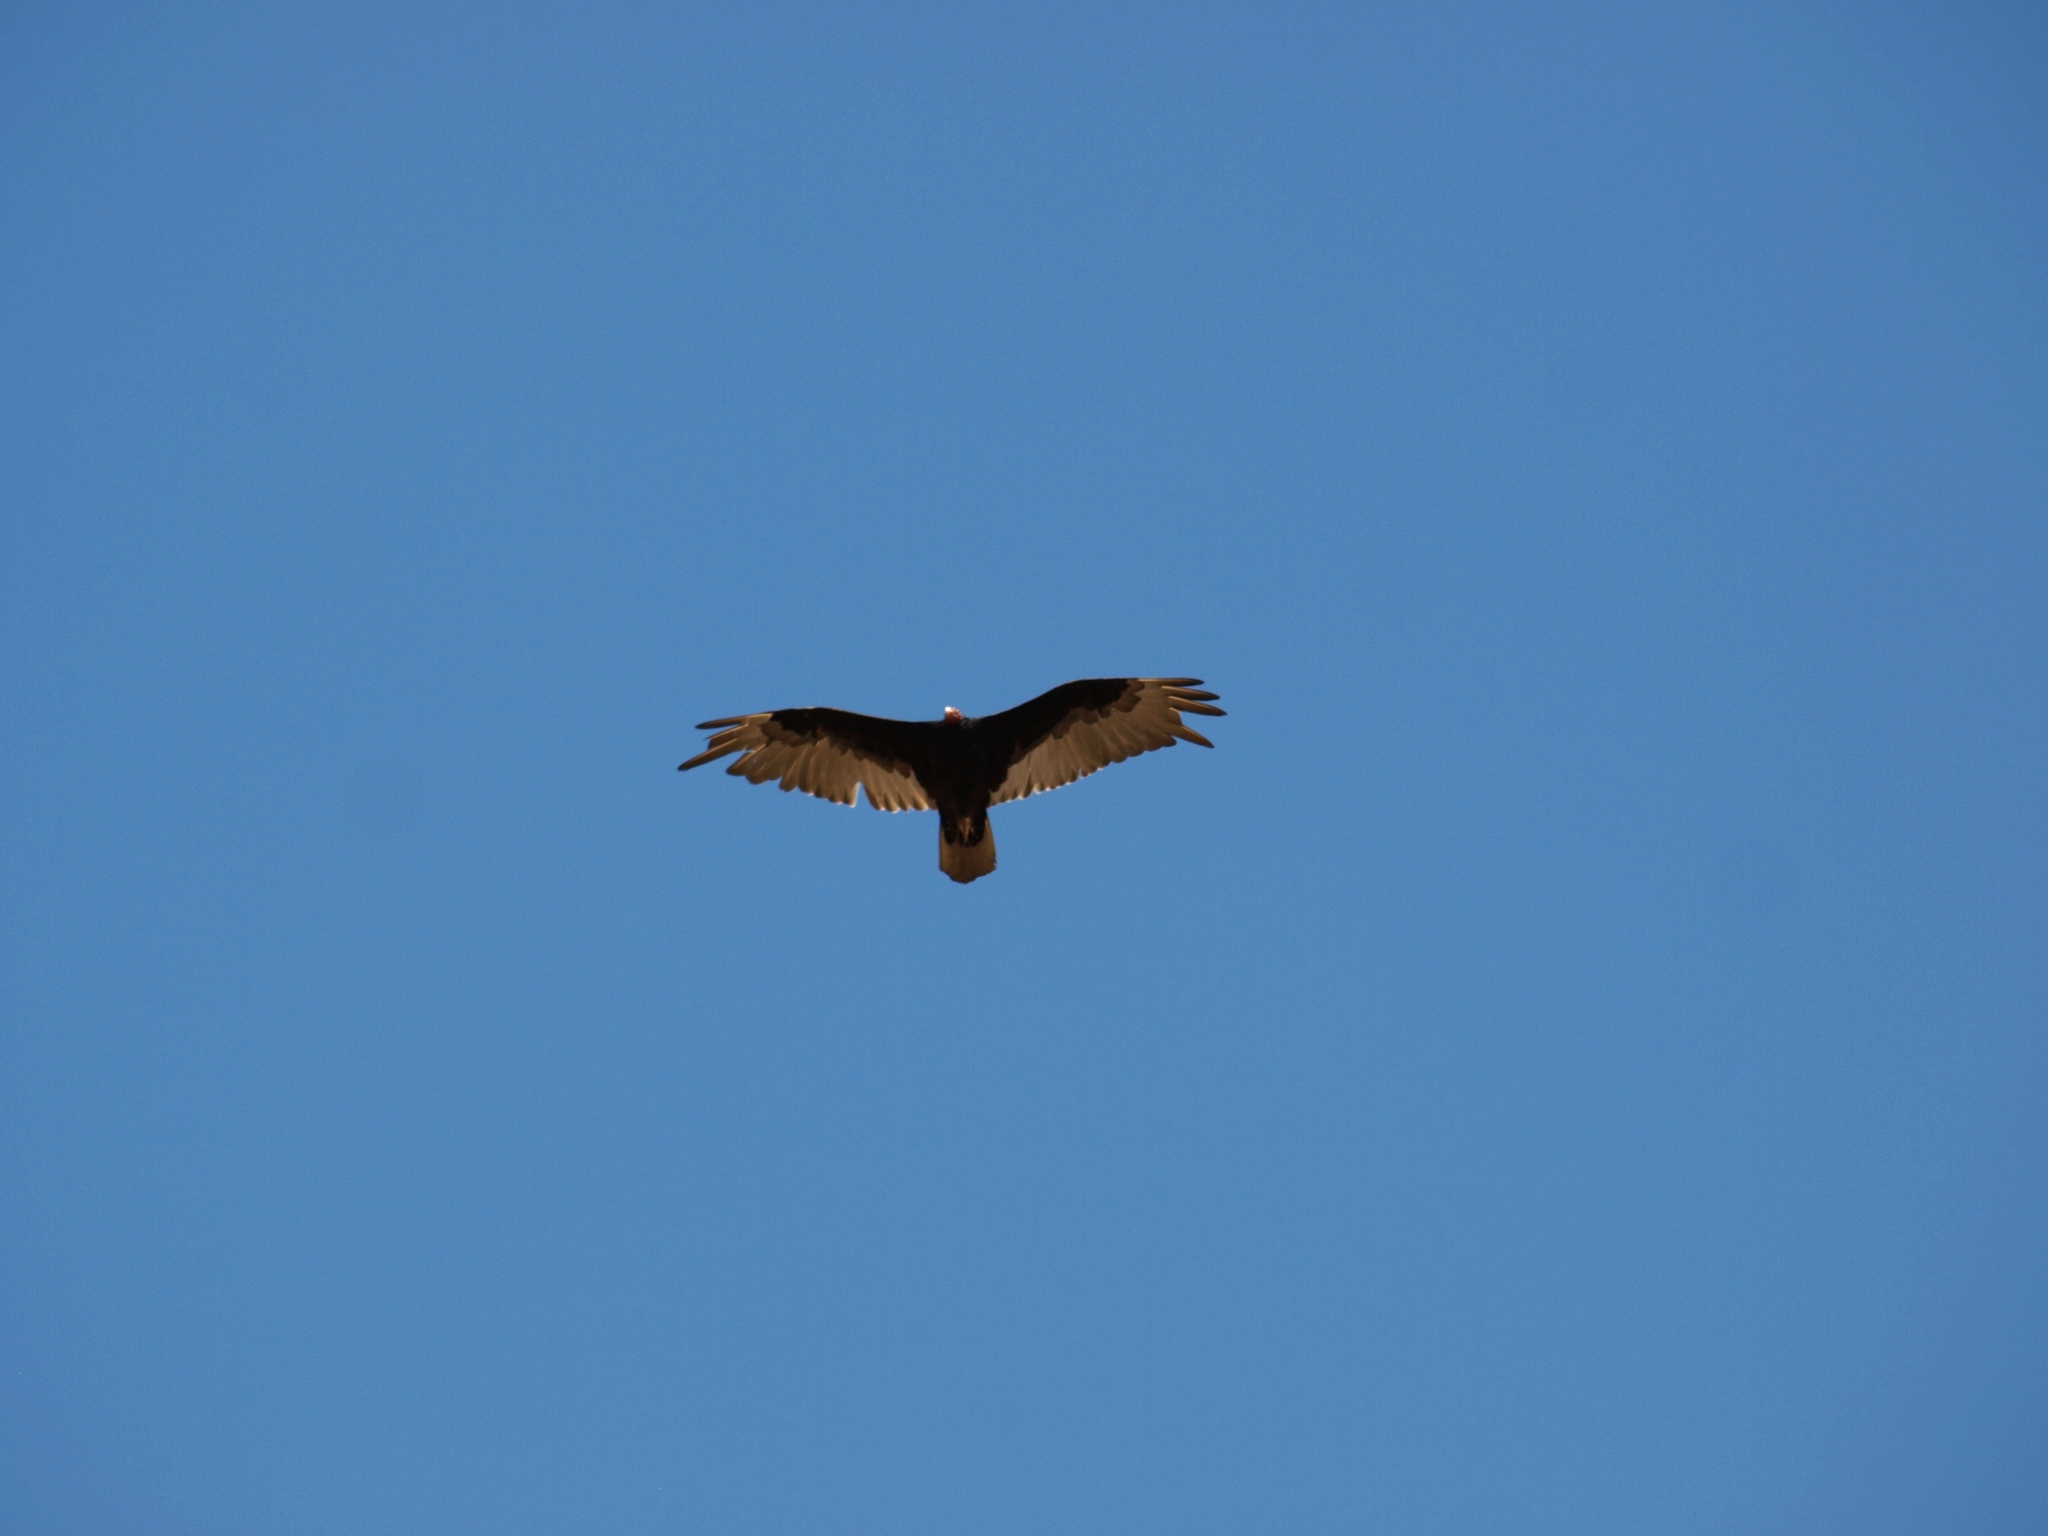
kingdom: Animalia
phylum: Chordata
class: Aves
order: Accipitriformes
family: Cathartidae
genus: Cathartes
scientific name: Cathartes aura
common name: Turkey vulture
